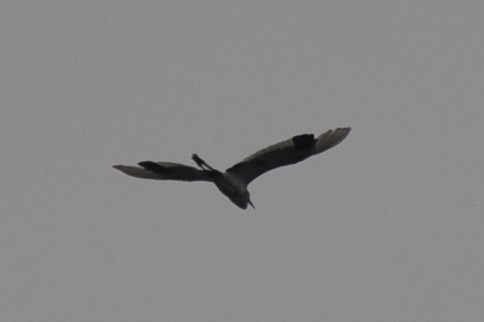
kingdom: Animalia
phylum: Chordata
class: Aves
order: Pelecaniformes
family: Ardeidae
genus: Ardea
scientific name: Ardea herodias
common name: Great blue heron
